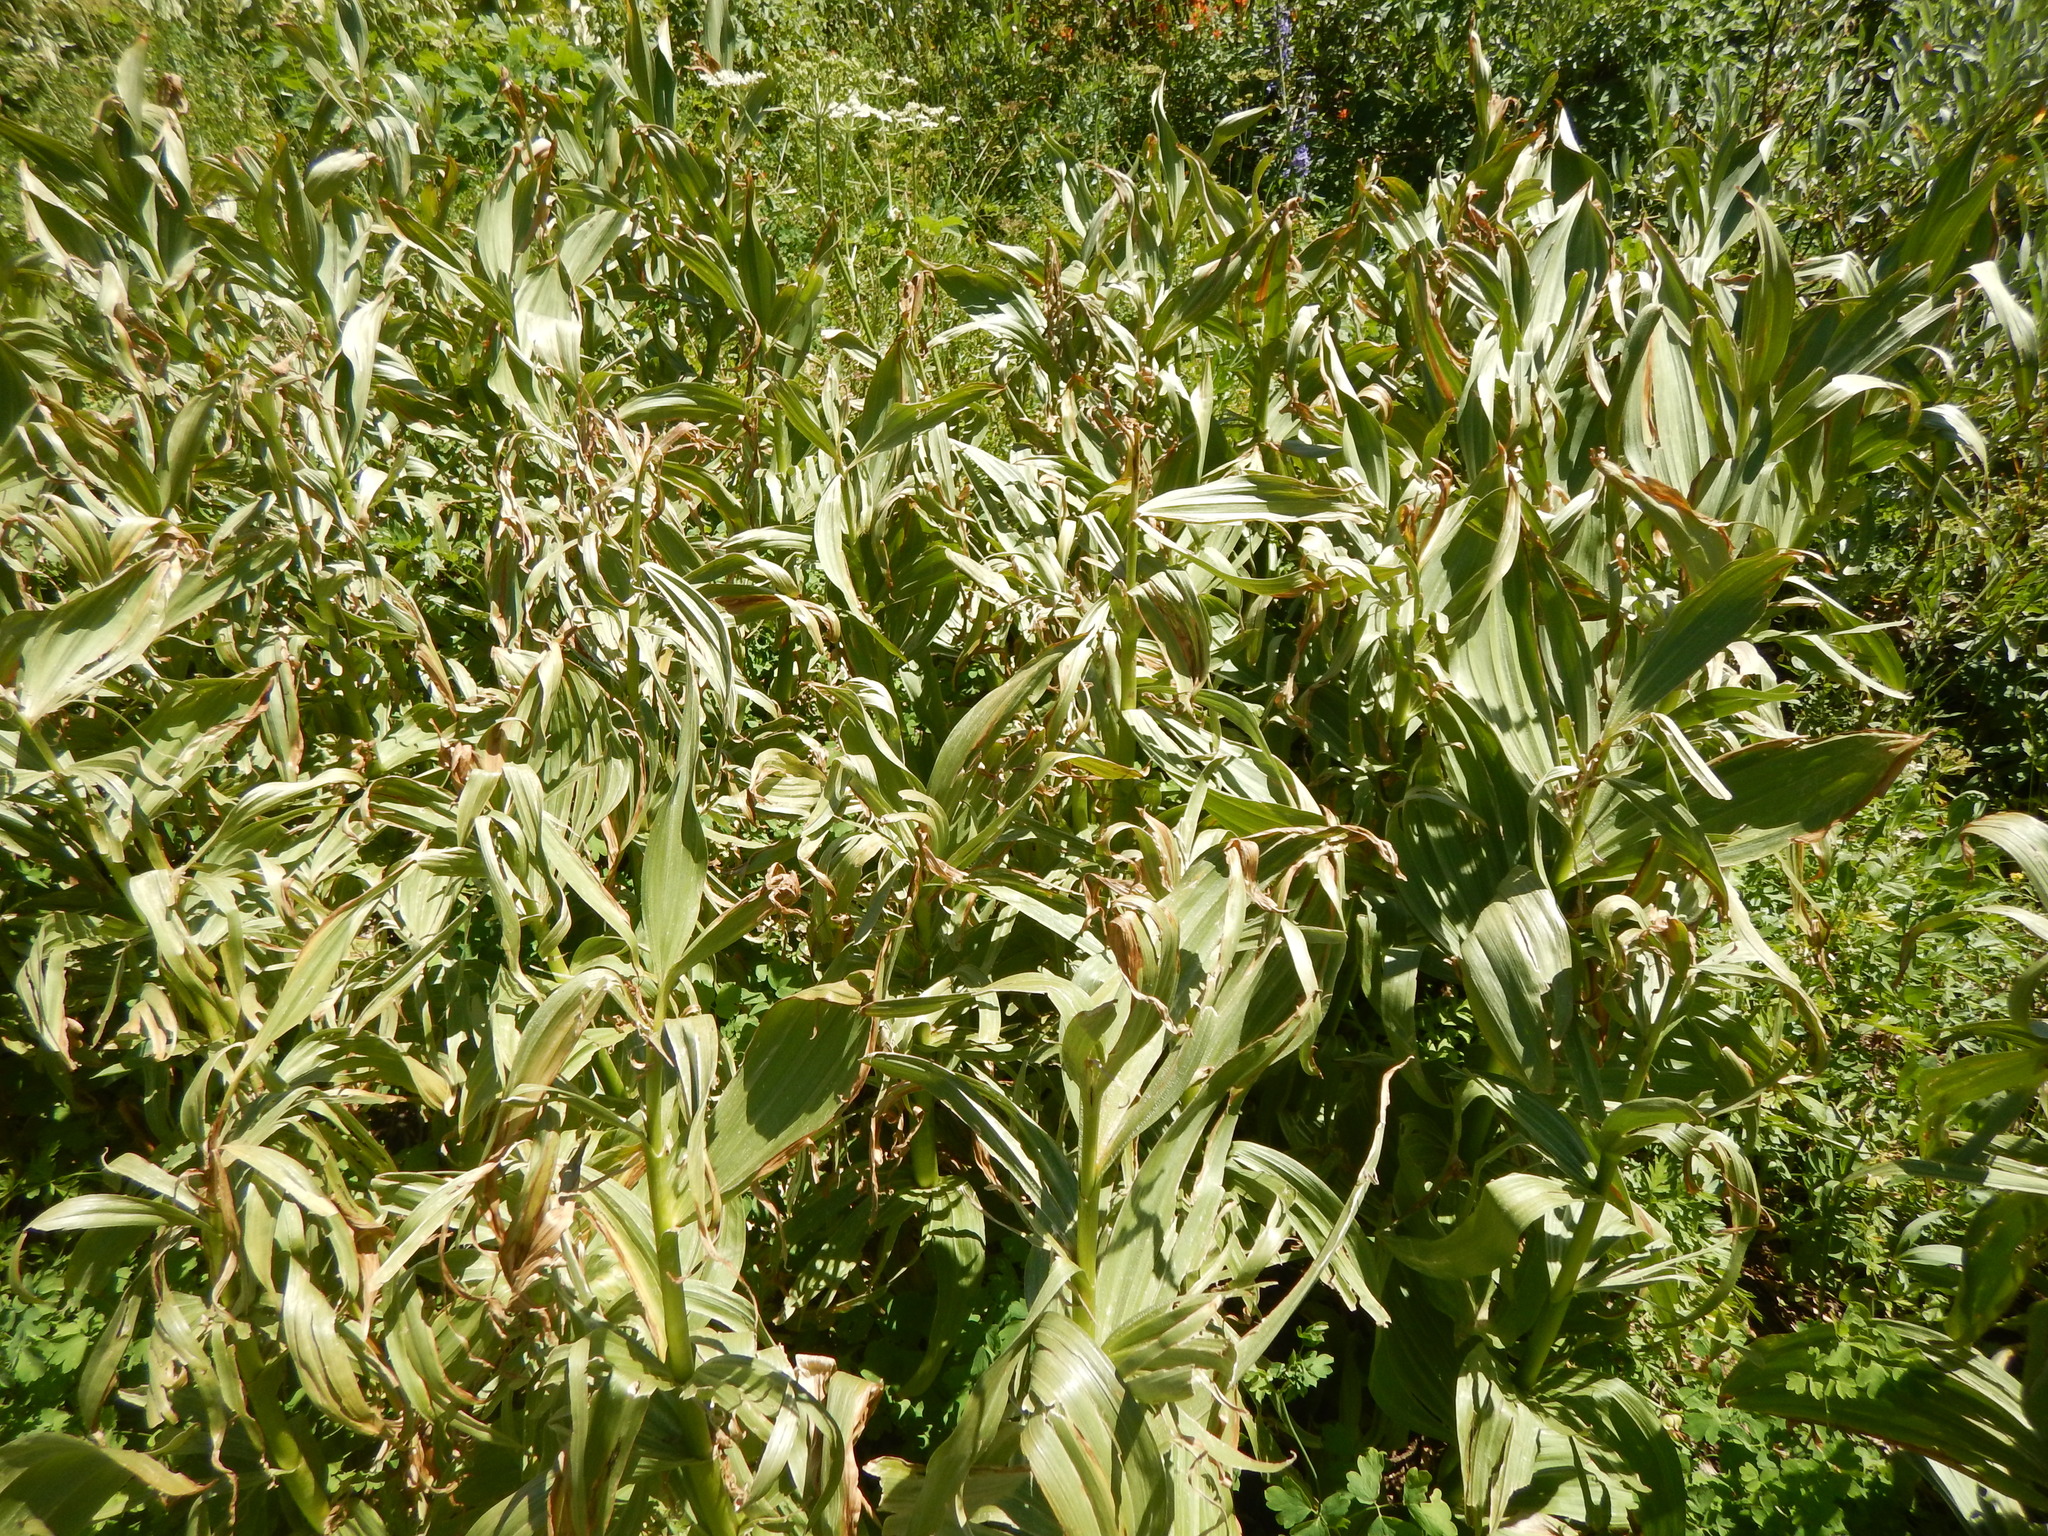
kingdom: Plantae
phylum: Tracheophyta
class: Liliopsida
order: Liliales
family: Melanthiaceae
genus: Veratrum
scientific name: Veratrum californicum
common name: California veratrum
